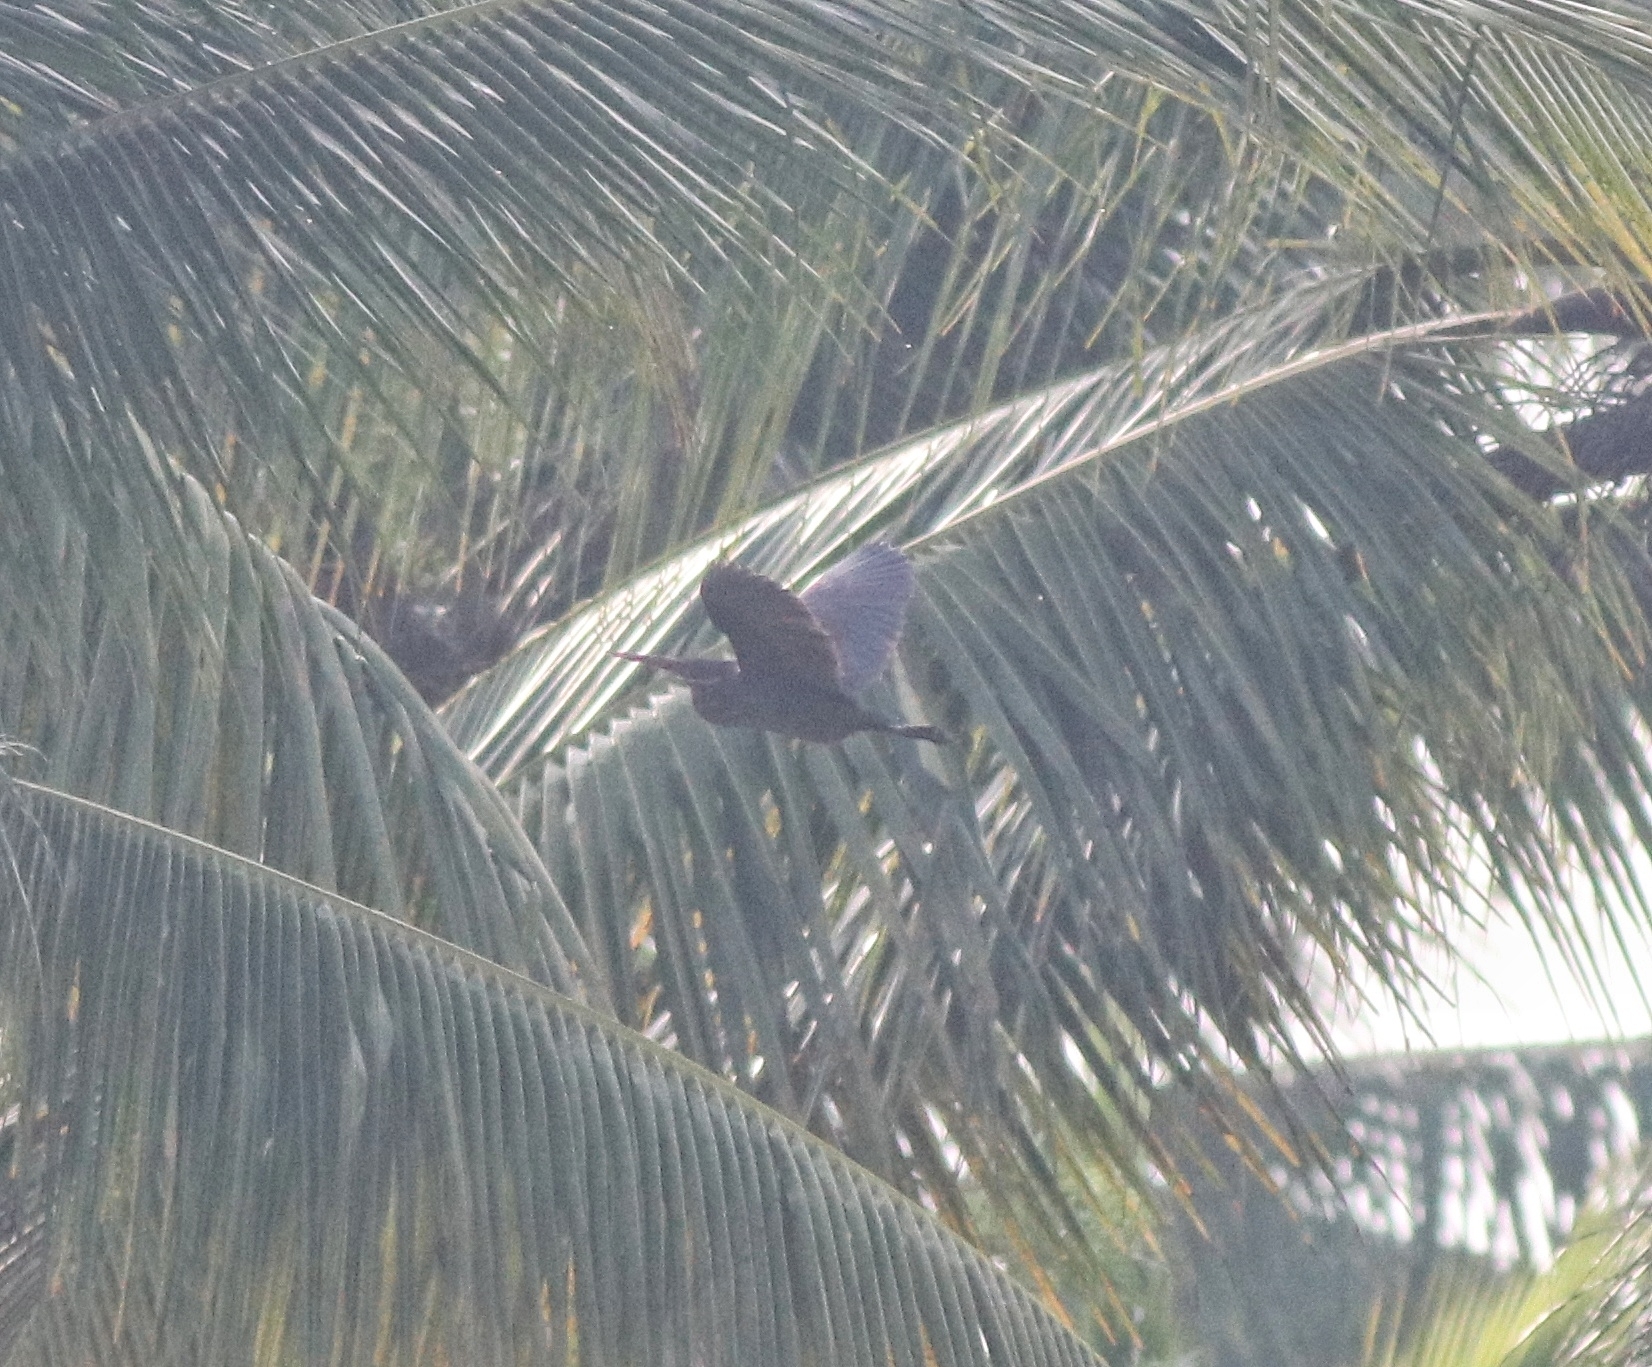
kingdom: Animalia
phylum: Chordata
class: Aves
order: Pelecaniformes
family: Ardeidae
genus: Dupetor
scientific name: Dupetor flavicollis
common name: Black bittern
